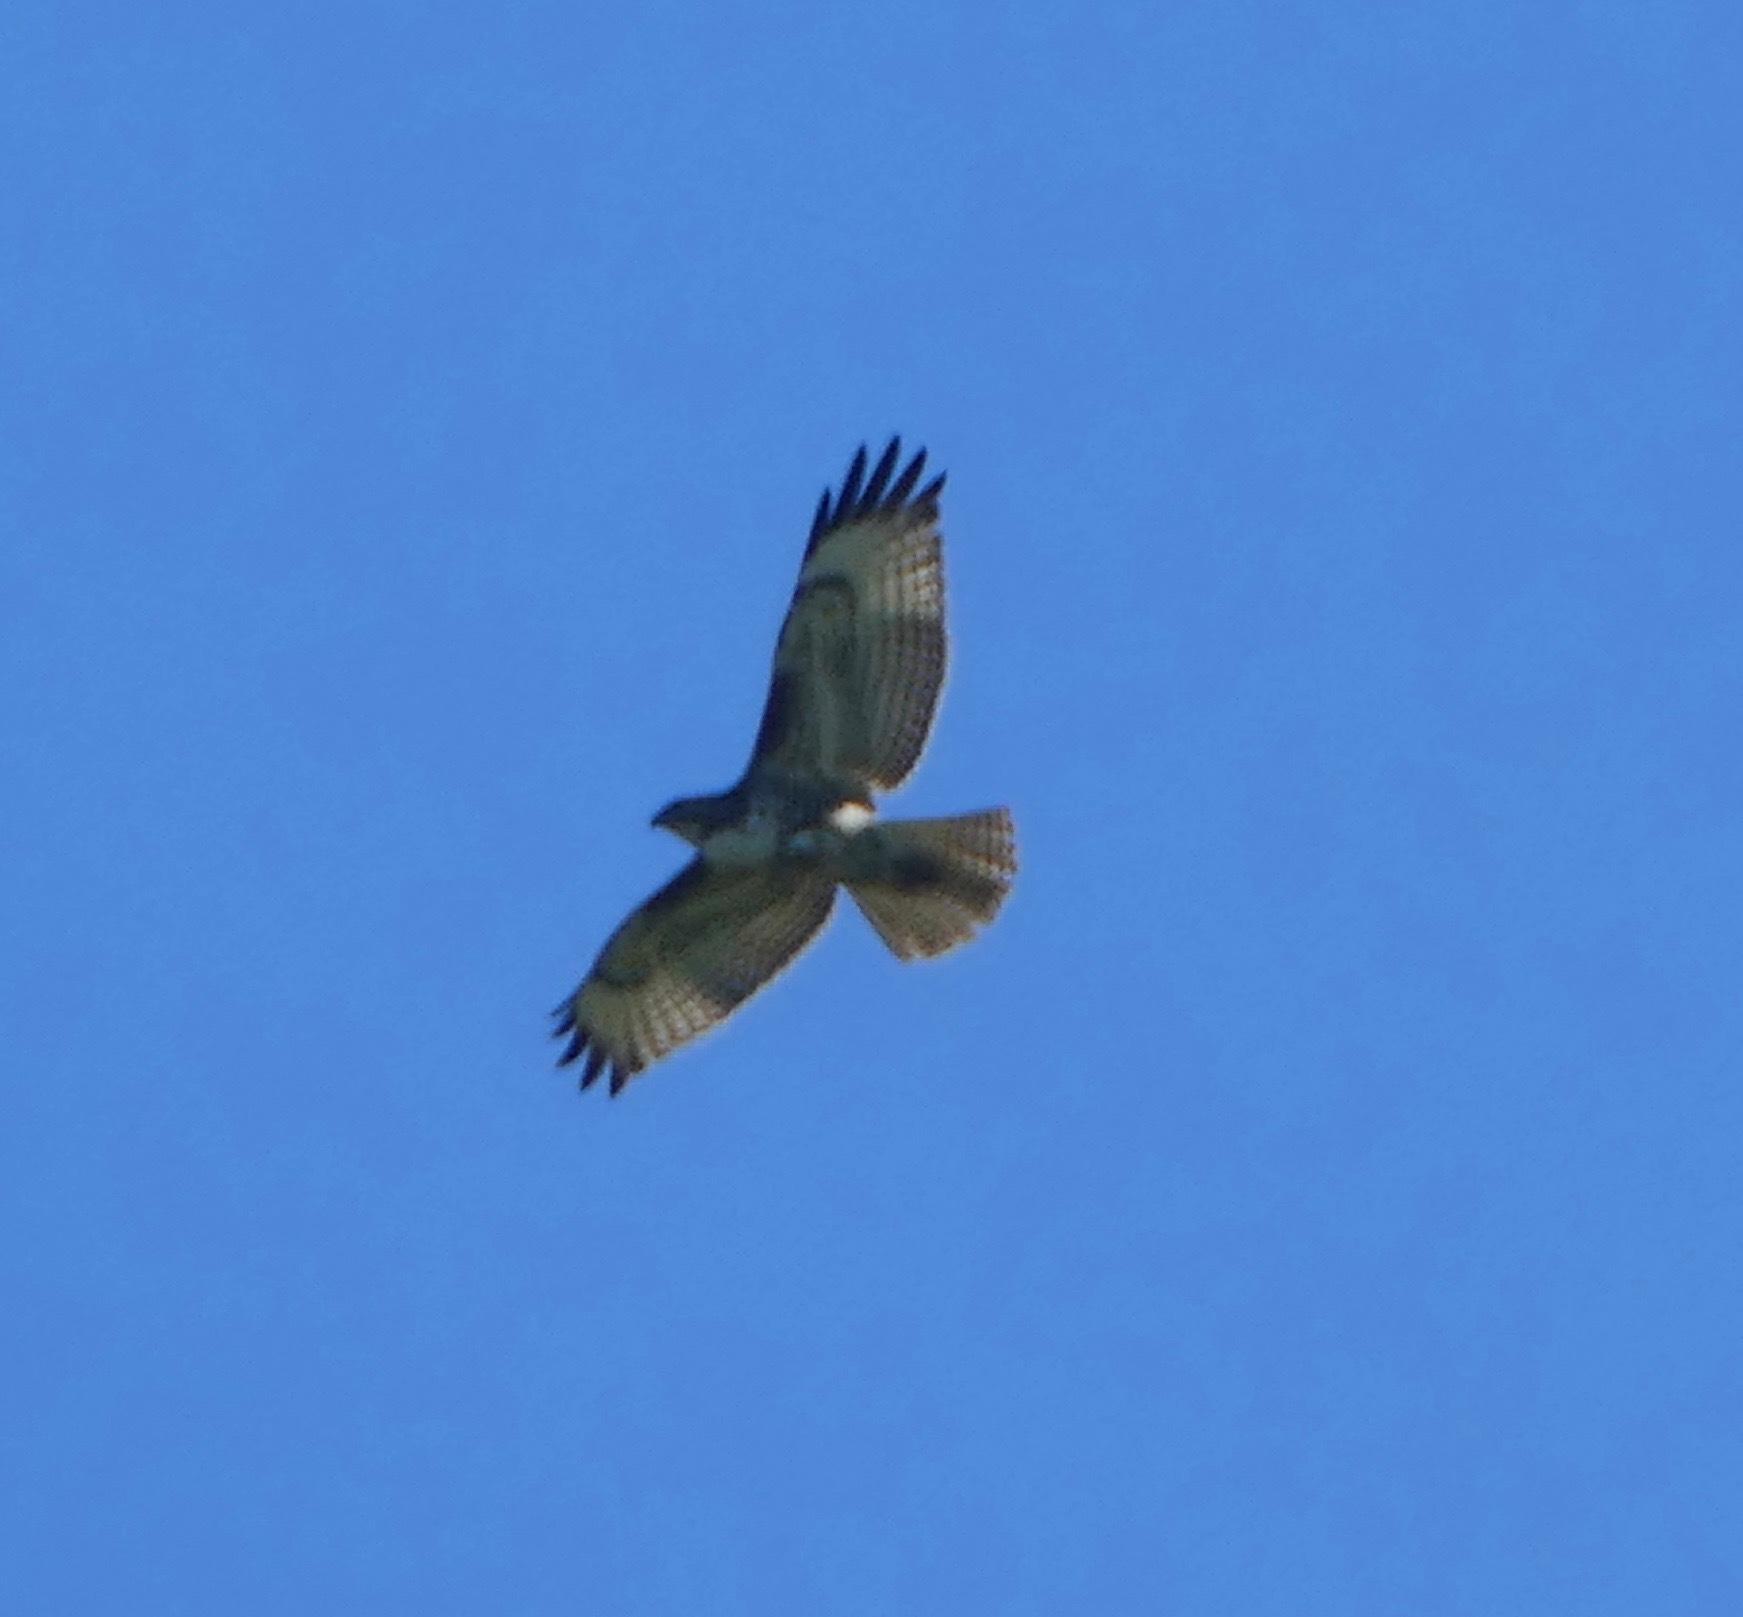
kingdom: Animalia
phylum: Chordata
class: Aves
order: Accipitriformes
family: Accipitridae
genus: Buteo
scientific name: Buteo jamaicensis
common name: Red-tailed hawk
